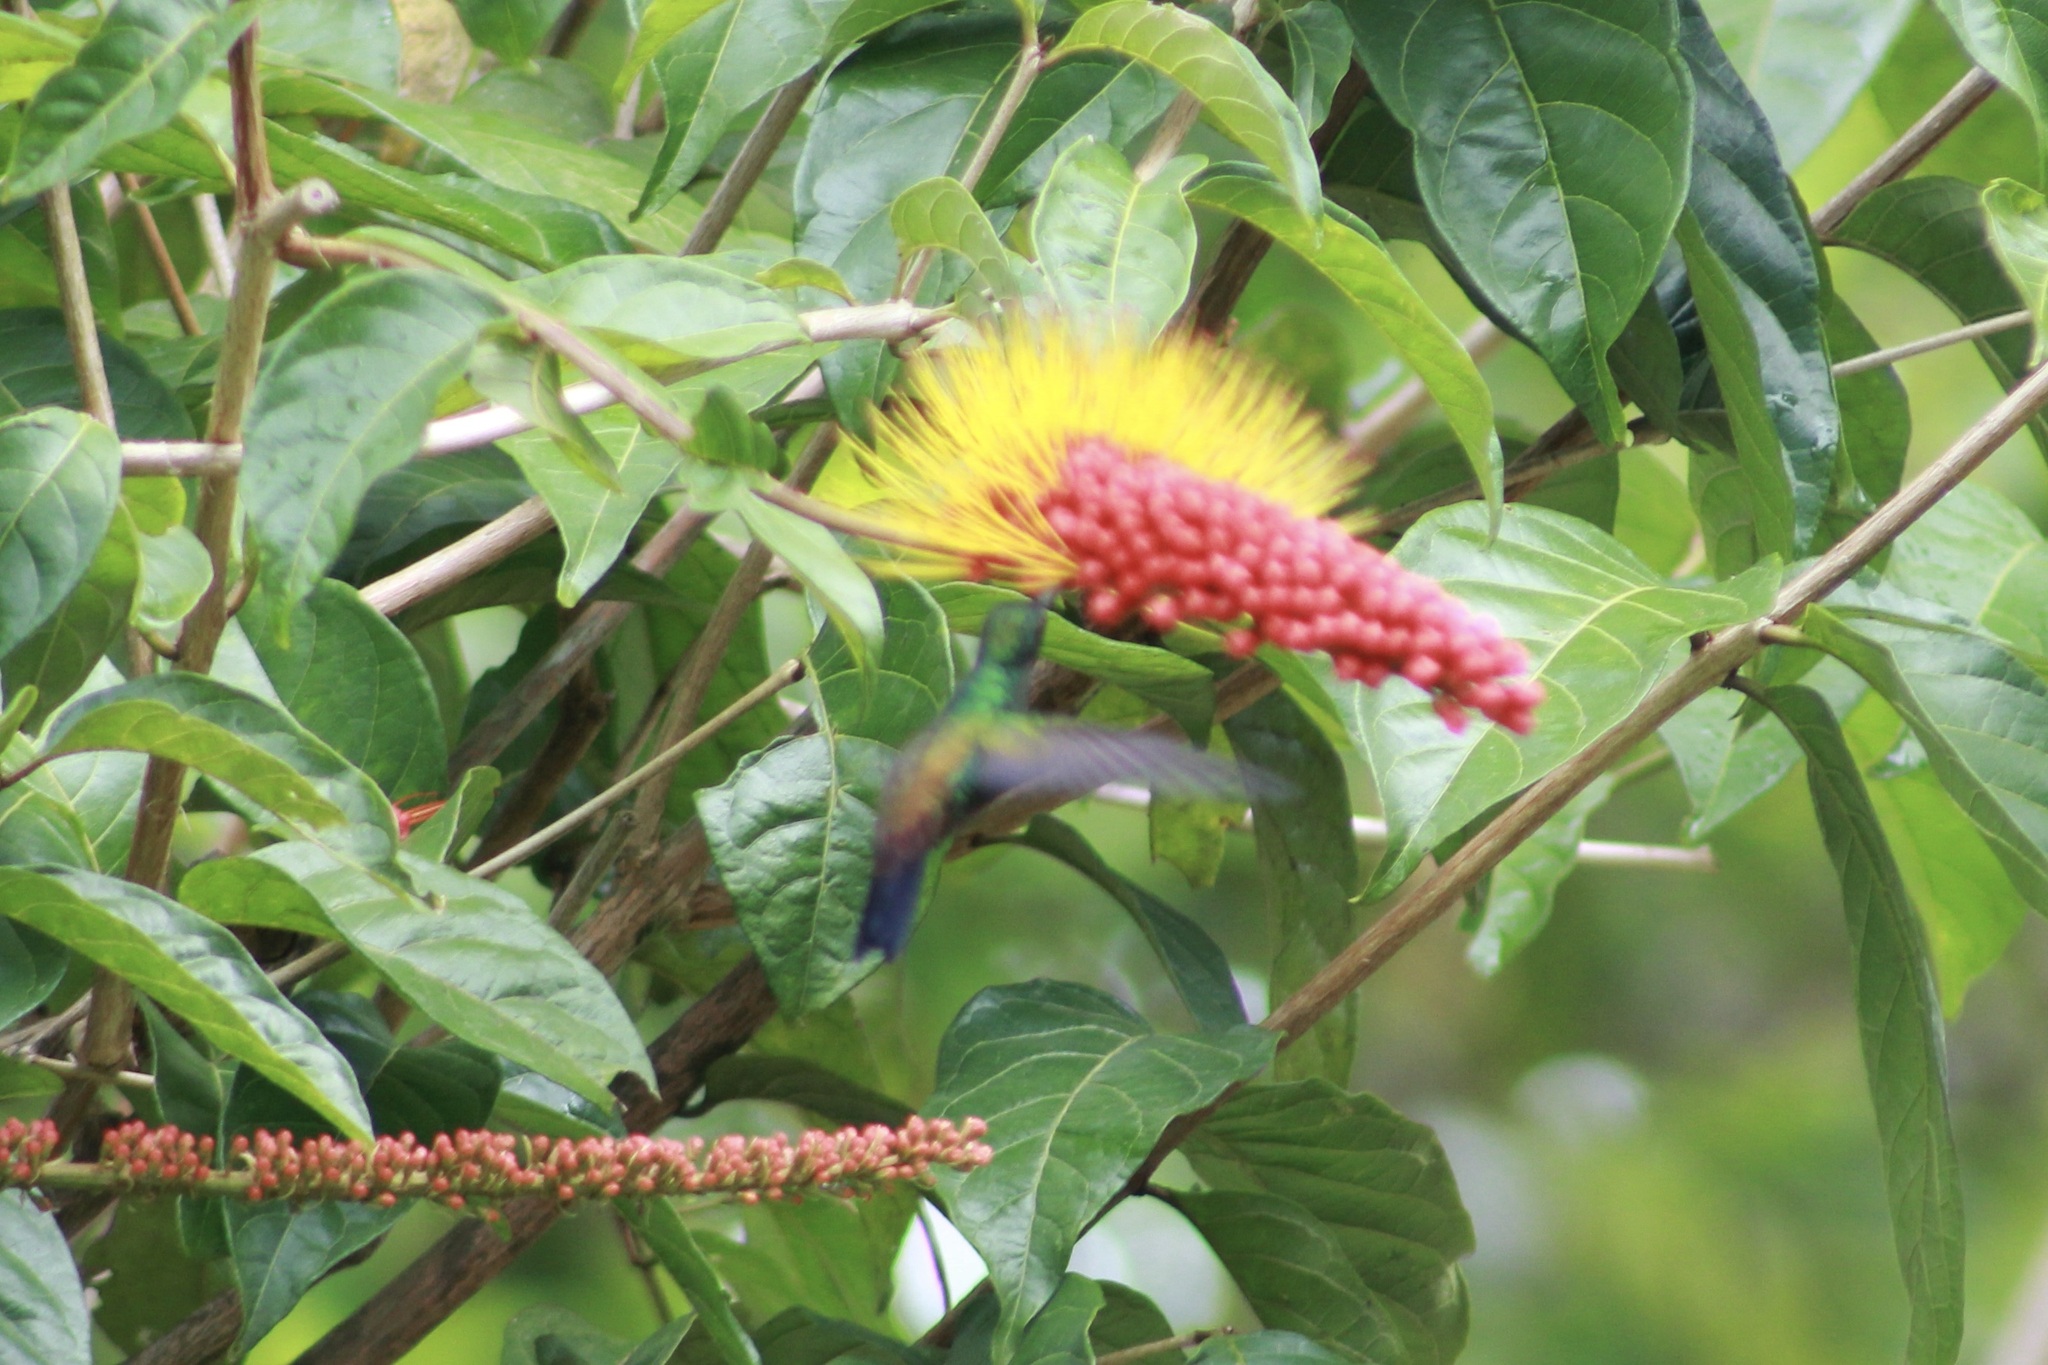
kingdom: Animalia
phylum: Chordata
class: Aves
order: Apodiformes
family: Trochilidae
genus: Saucerottia
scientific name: Saucerottia tobaci
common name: Copper-rumped hummingbird
